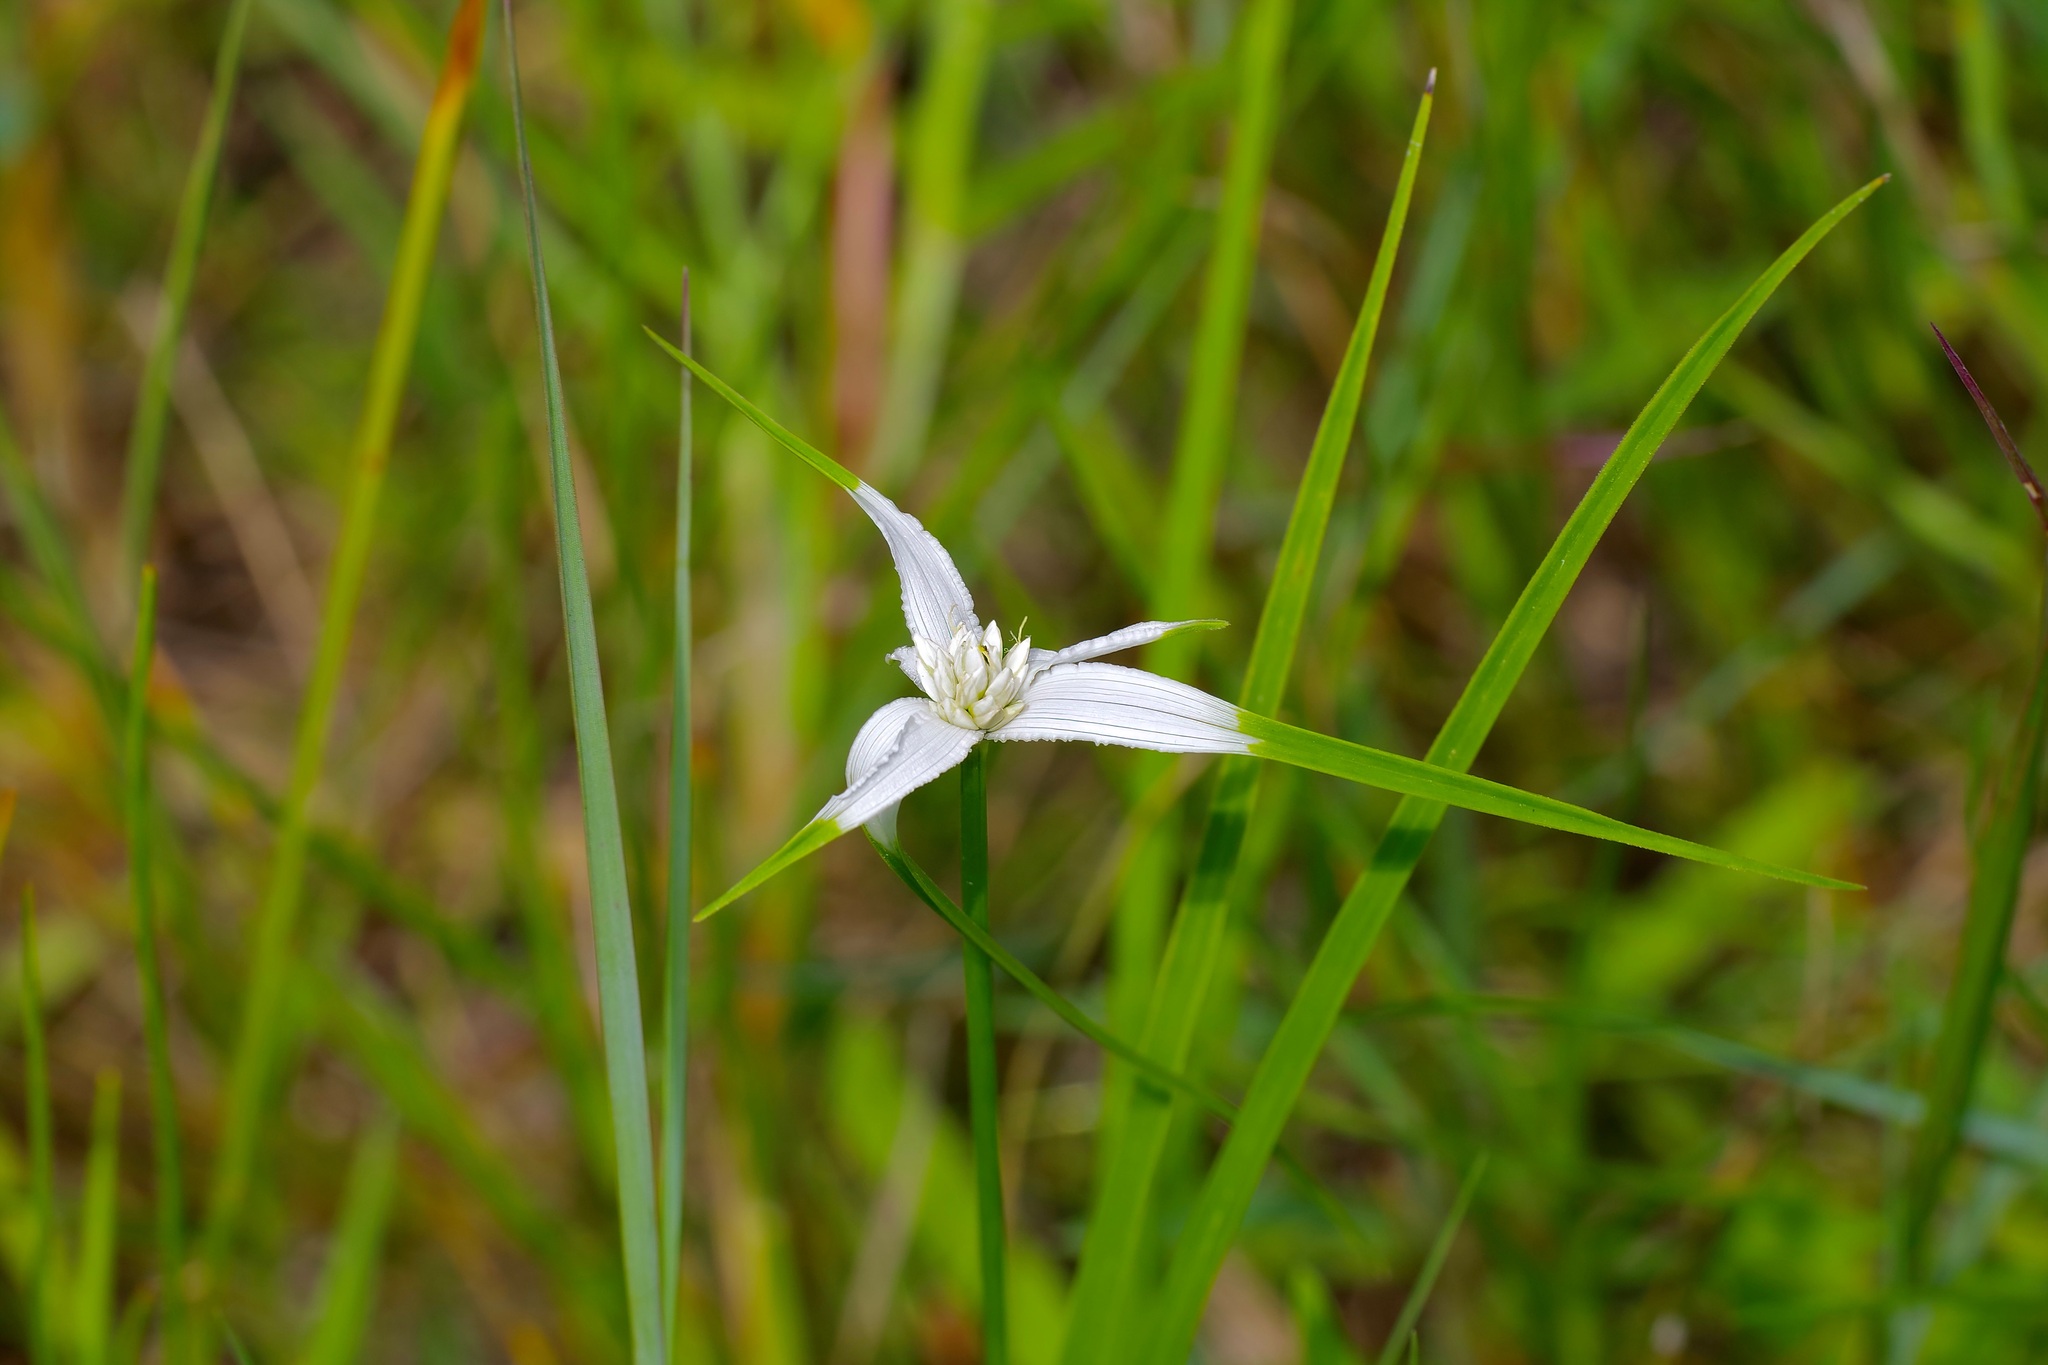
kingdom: Plantae
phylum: Tracheophyta
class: Liliopsida
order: Poales
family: Cyperaceae
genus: Rhynchospora
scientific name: Rhynchospora colorata
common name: Star sedge
